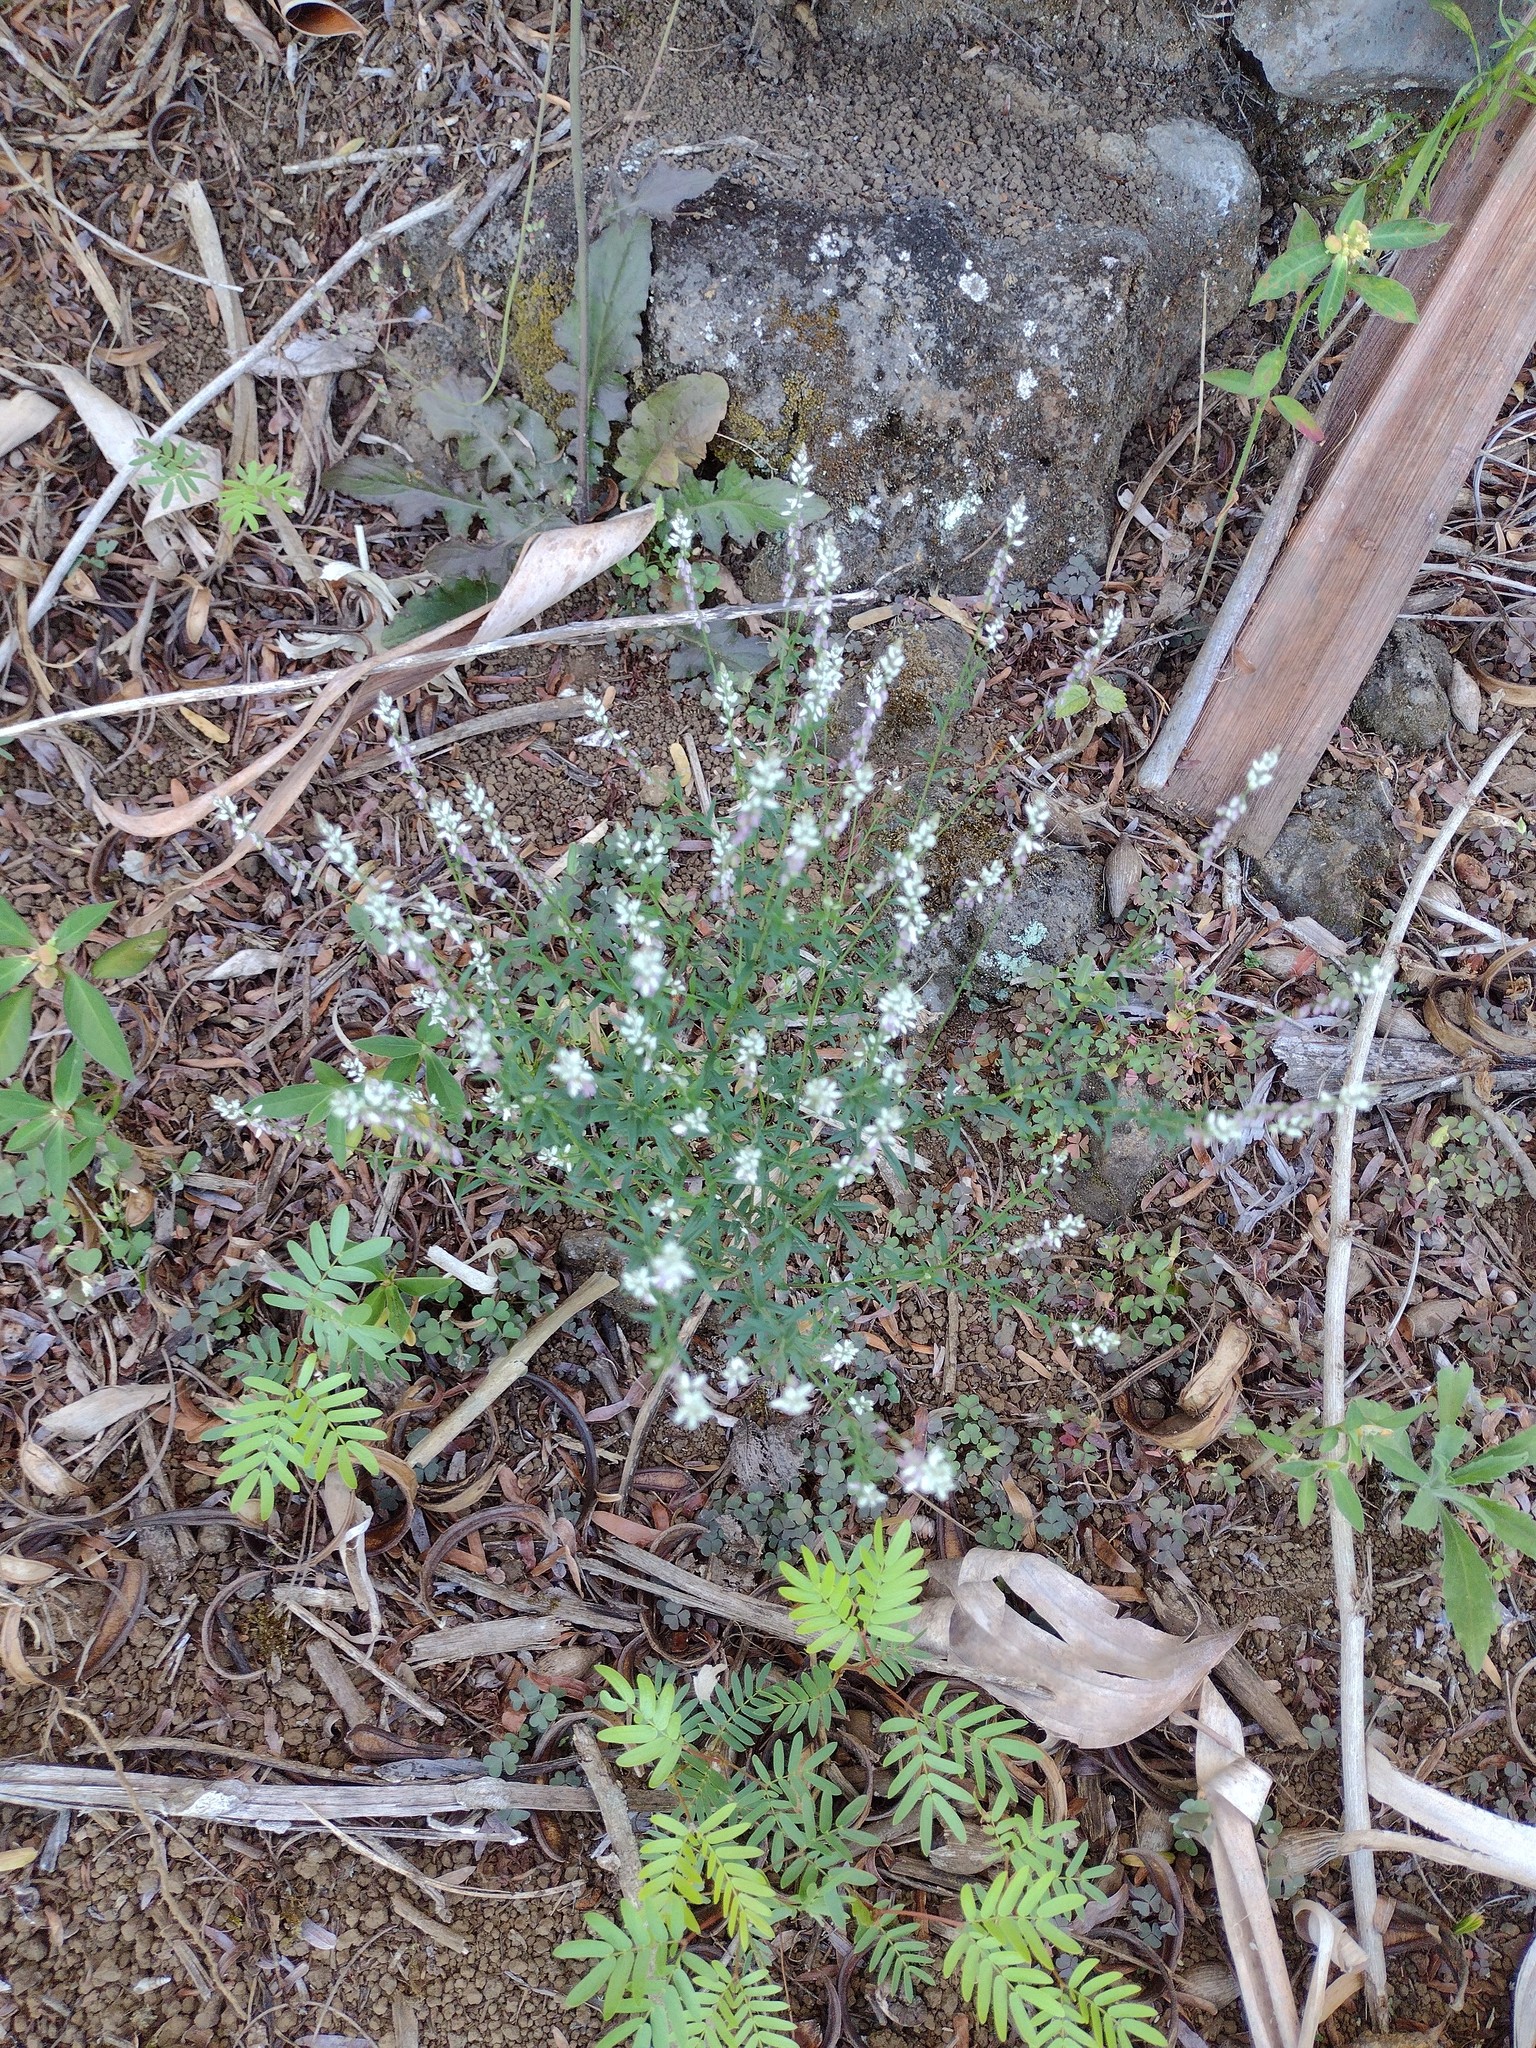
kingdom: Plantae
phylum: Tracheophyta
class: Magnoliopsida
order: Fabales
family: Polygalaceae
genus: Polygala
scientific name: Polygala paniculata
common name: Orosne
